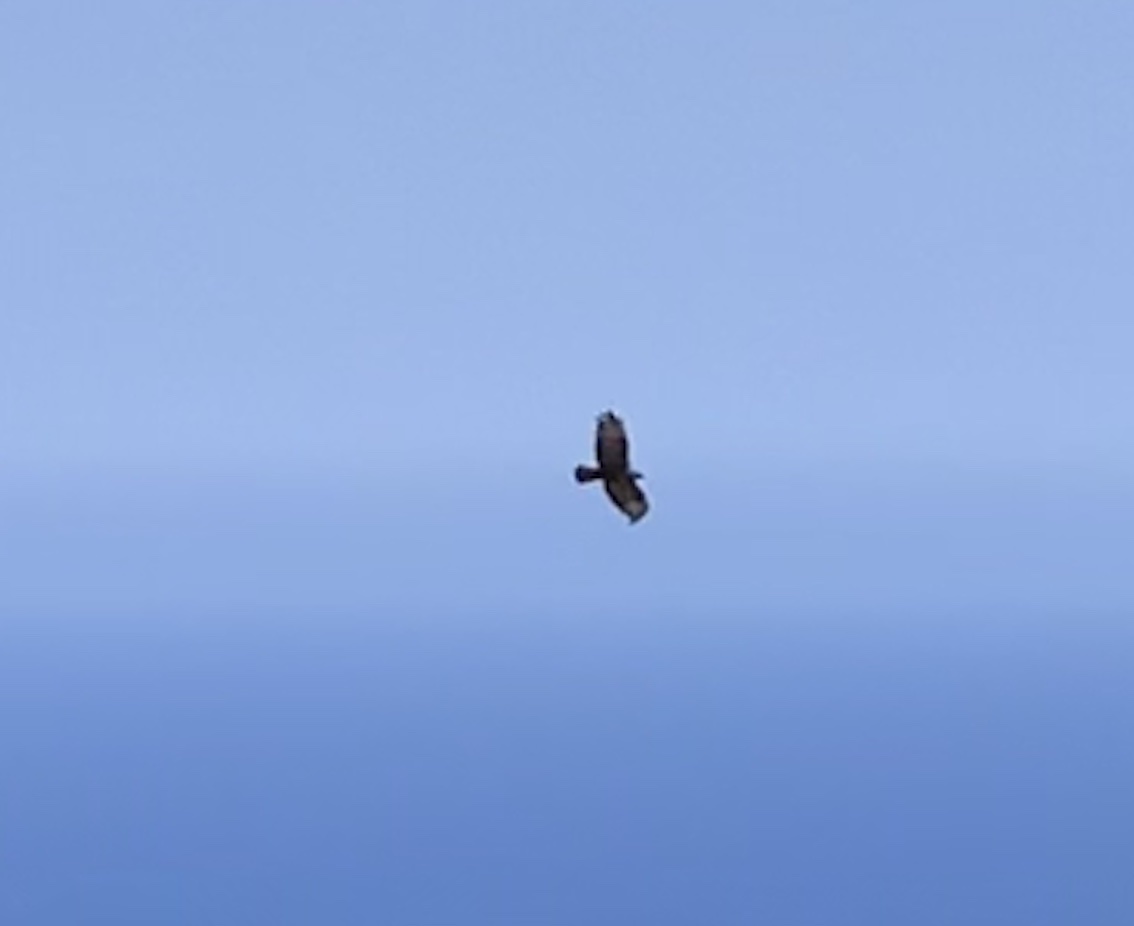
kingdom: Animalia
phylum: Chordata
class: Aves
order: Accipitriformes
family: Accipitridae
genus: Buteo
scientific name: Buteo buteo
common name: Common buzzard
